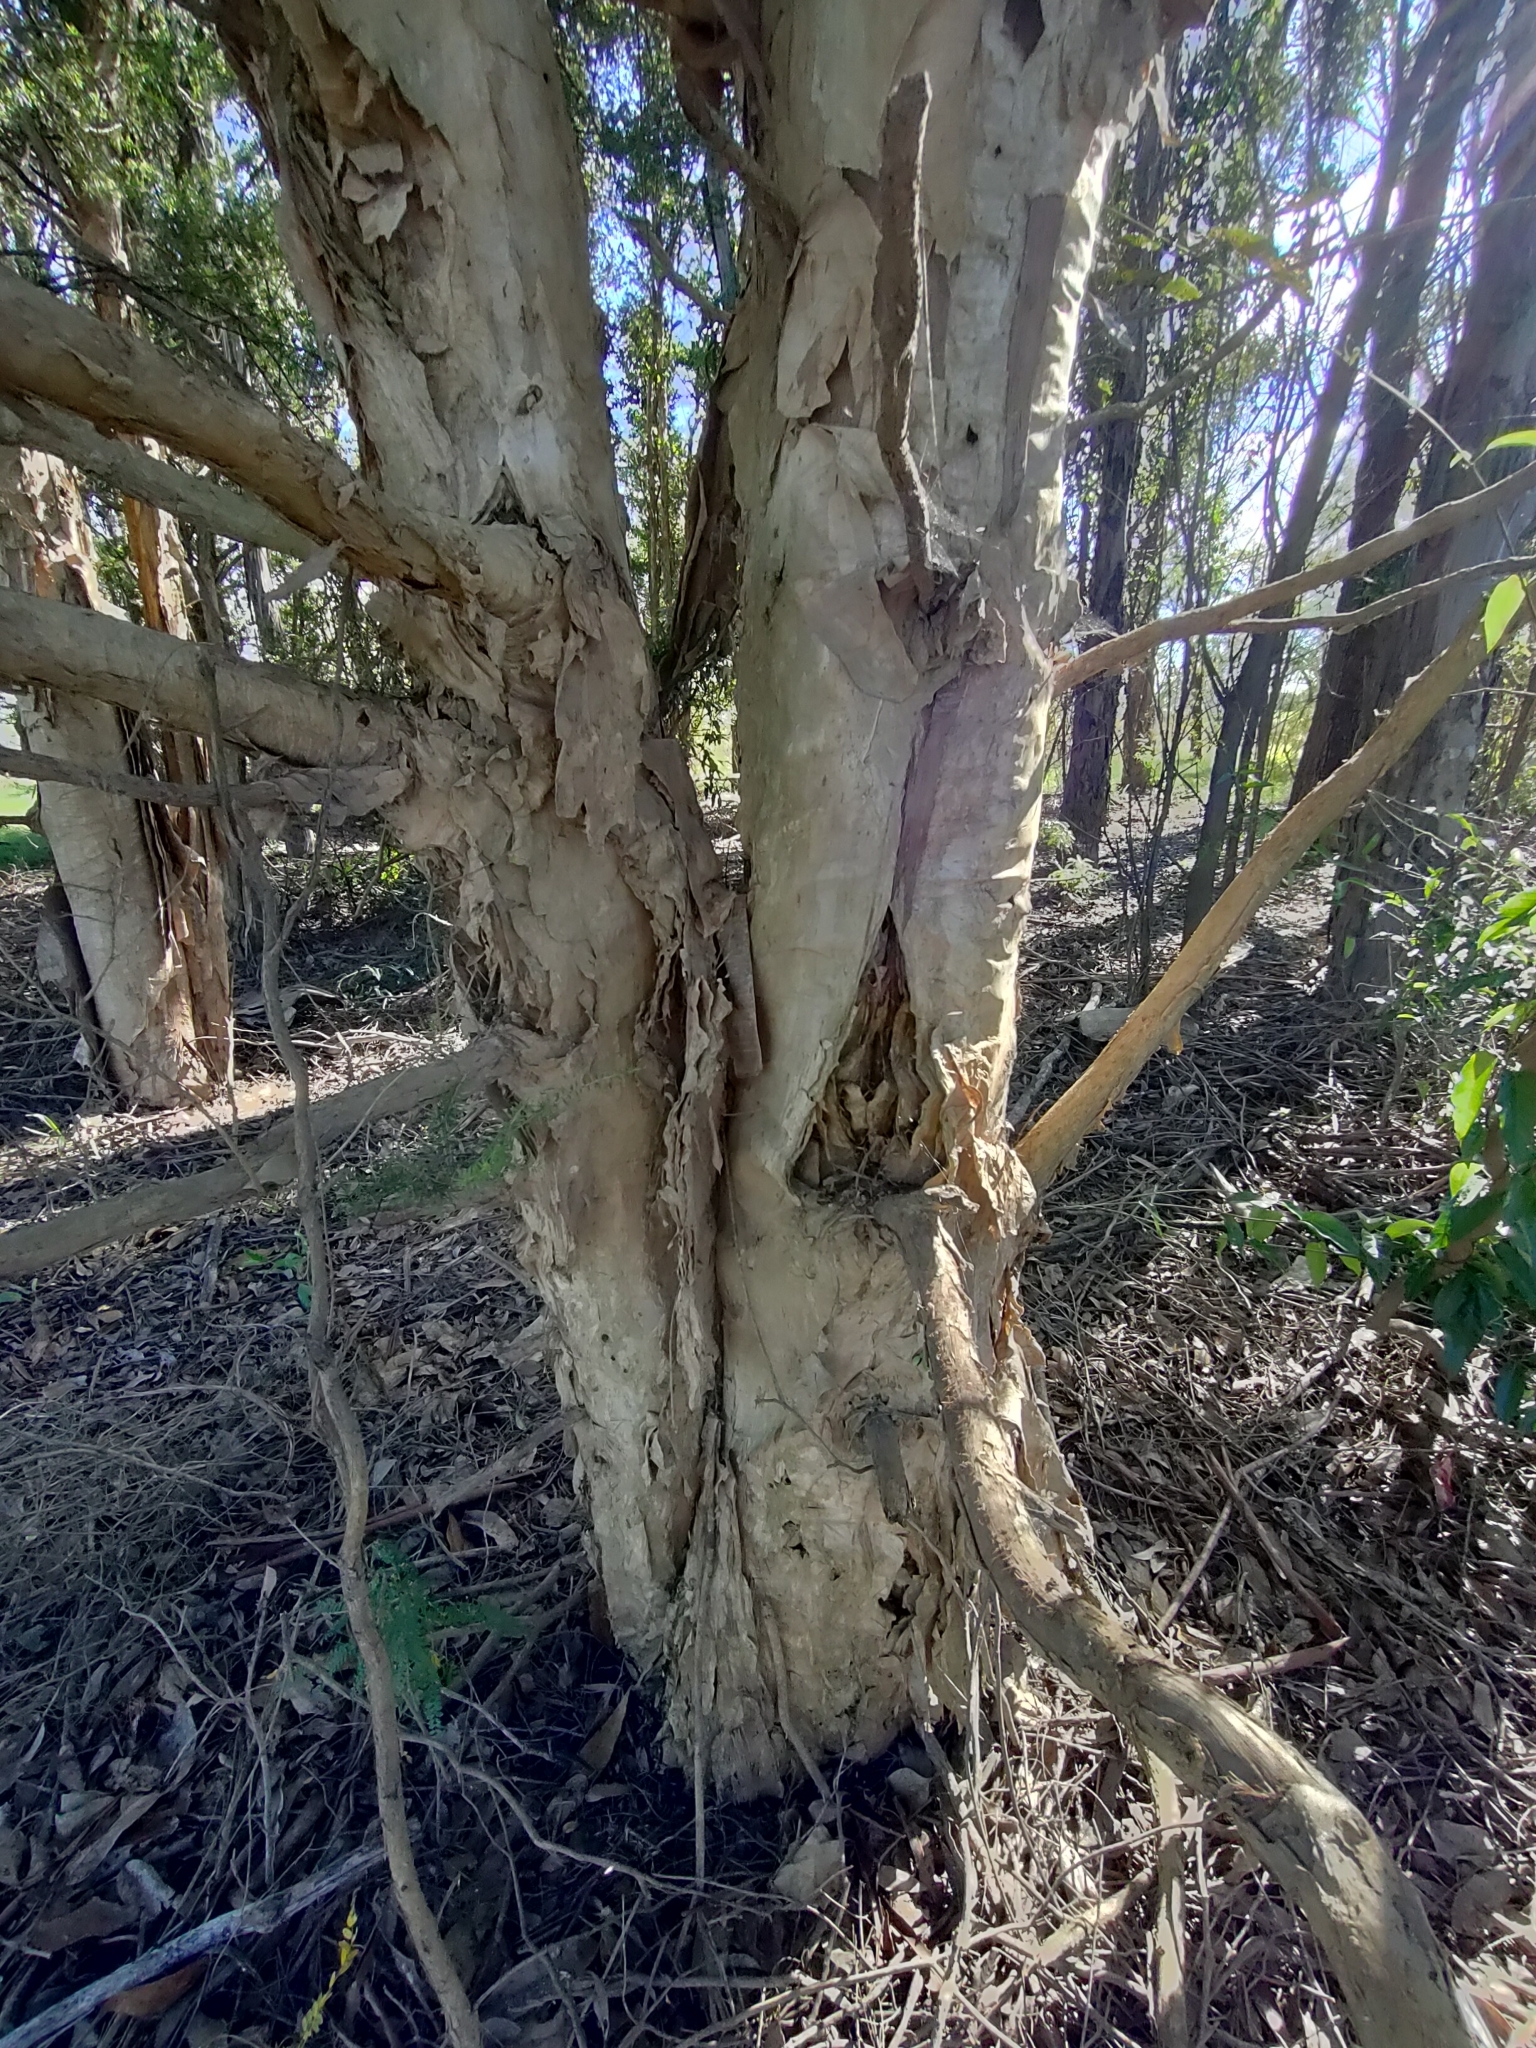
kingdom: Plantae
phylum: Tracheophyta
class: Magnoliopsida
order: Myrtales
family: Myrtaceae
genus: Melaleuca
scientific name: Melaleuca styphelioides
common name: Prickly paperbark
